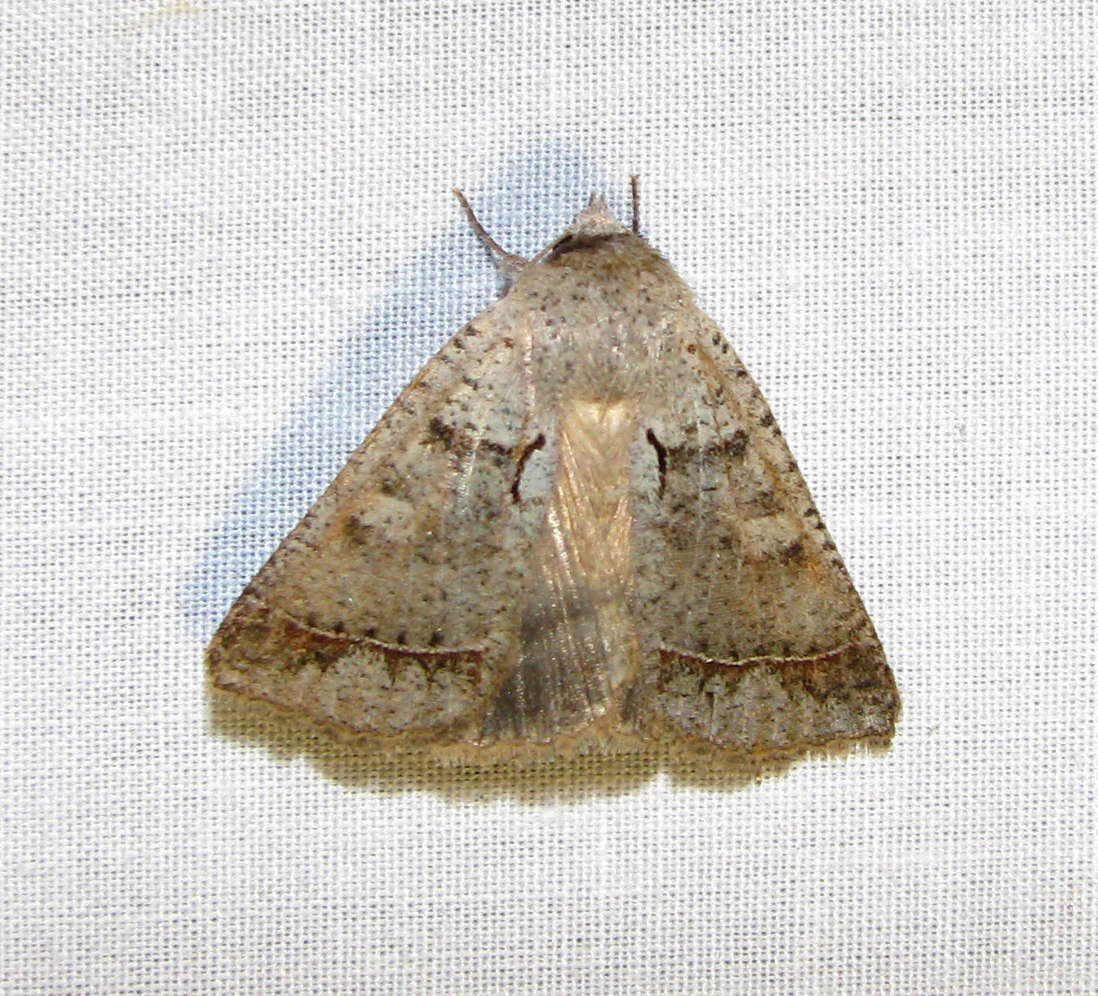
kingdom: Animalia
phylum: Arthropoda
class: Insecta
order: Lepidoptera
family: Erebidae
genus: Pantydia
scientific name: Pantydia sparsa
